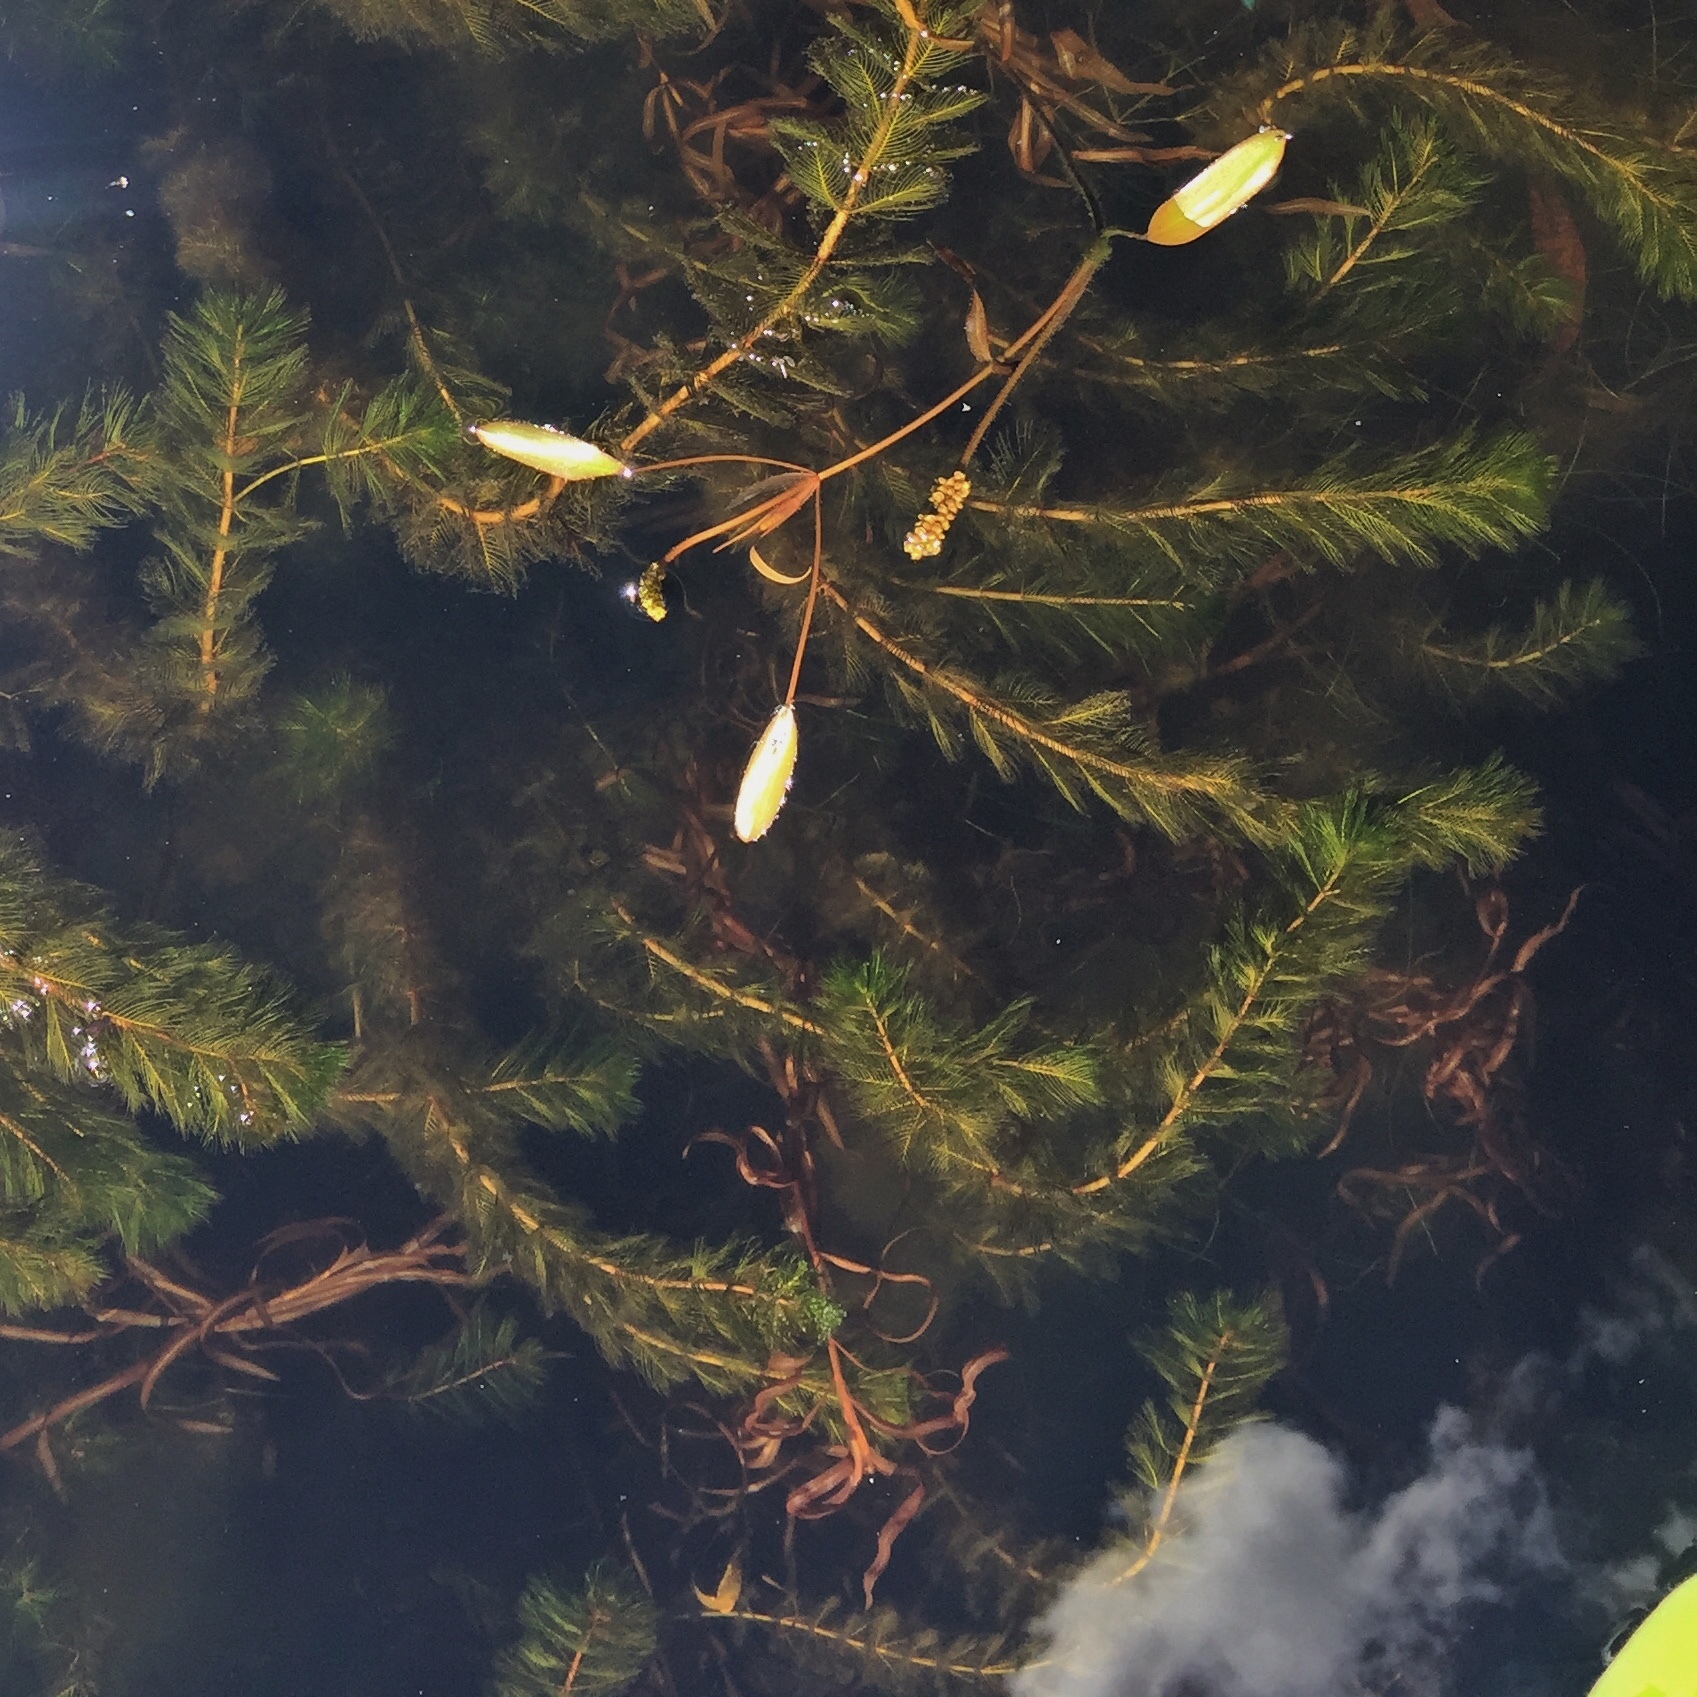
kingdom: Plantae
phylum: Tracheophyta
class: Magnoliopsida
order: Saxifragales
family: Haloragaceae
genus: Myriophyllum
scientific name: Myriophyllum spicatum
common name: Spiked water-milfoil
